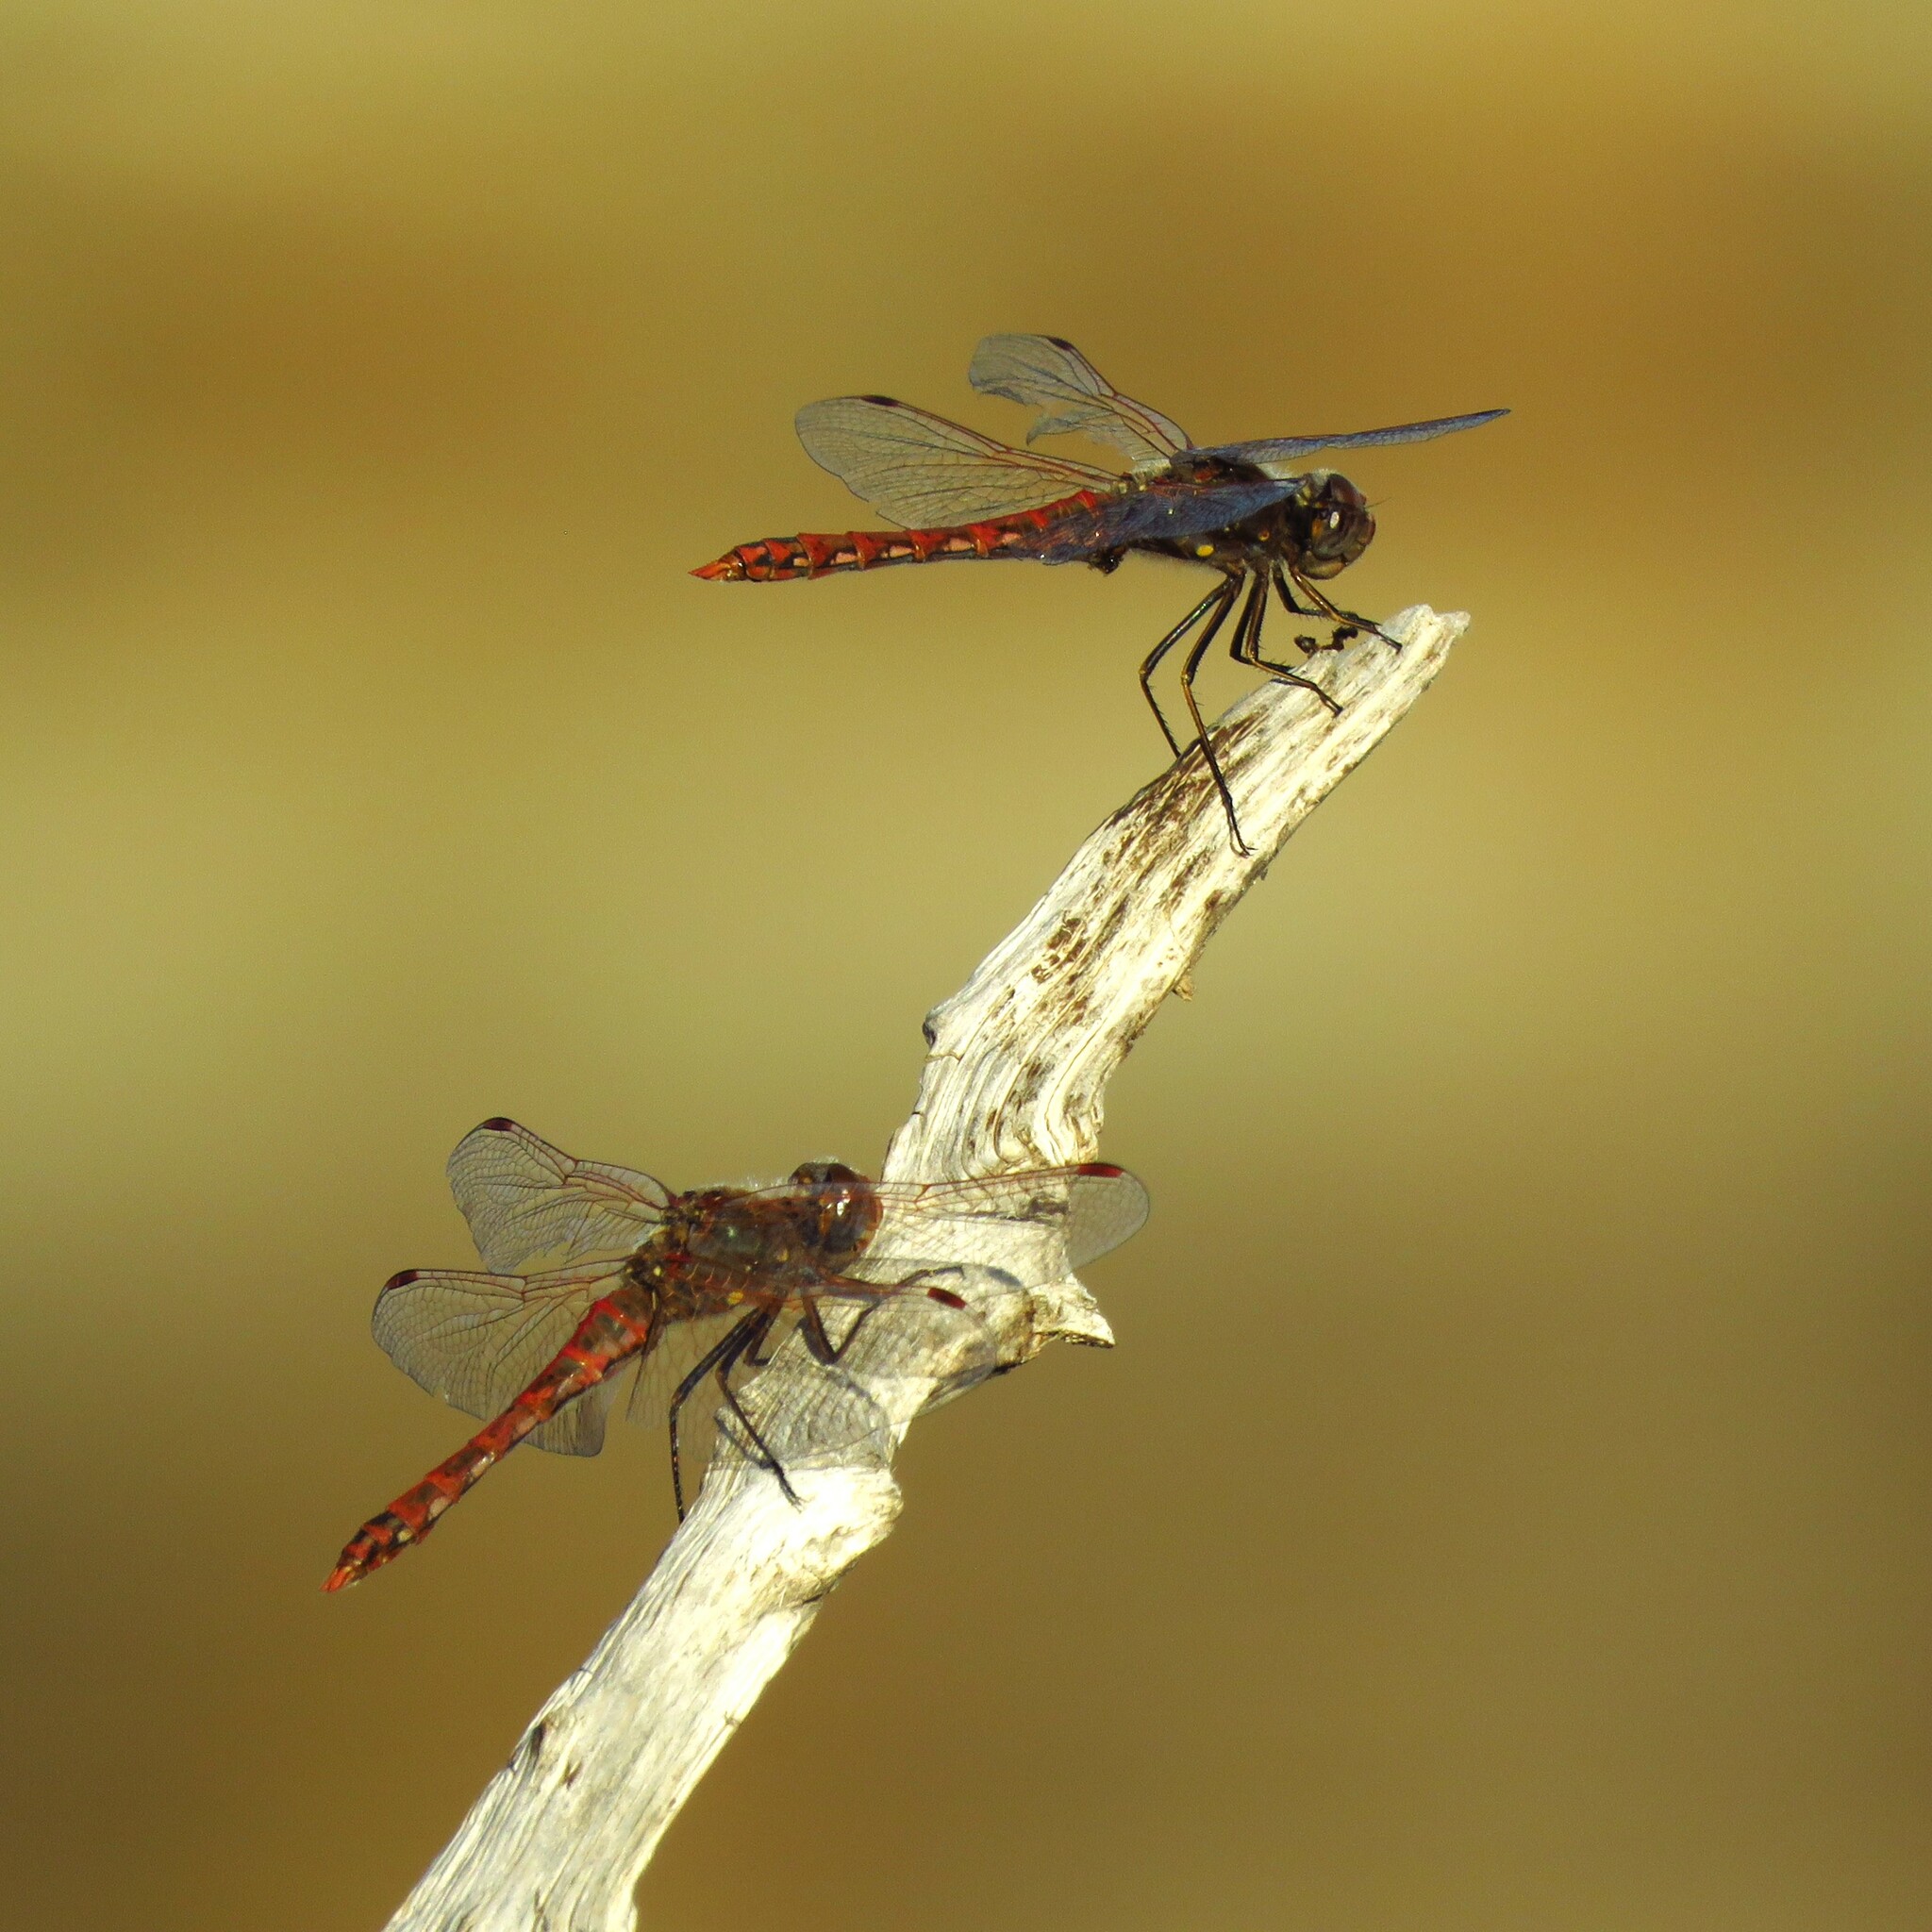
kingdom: Animalia
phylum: Arthropoda
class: Insecta
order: Odonata
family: Libellulidae
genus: Sympetrum
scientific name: Sympetrum corruptum
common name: Variegated meadowhawk
